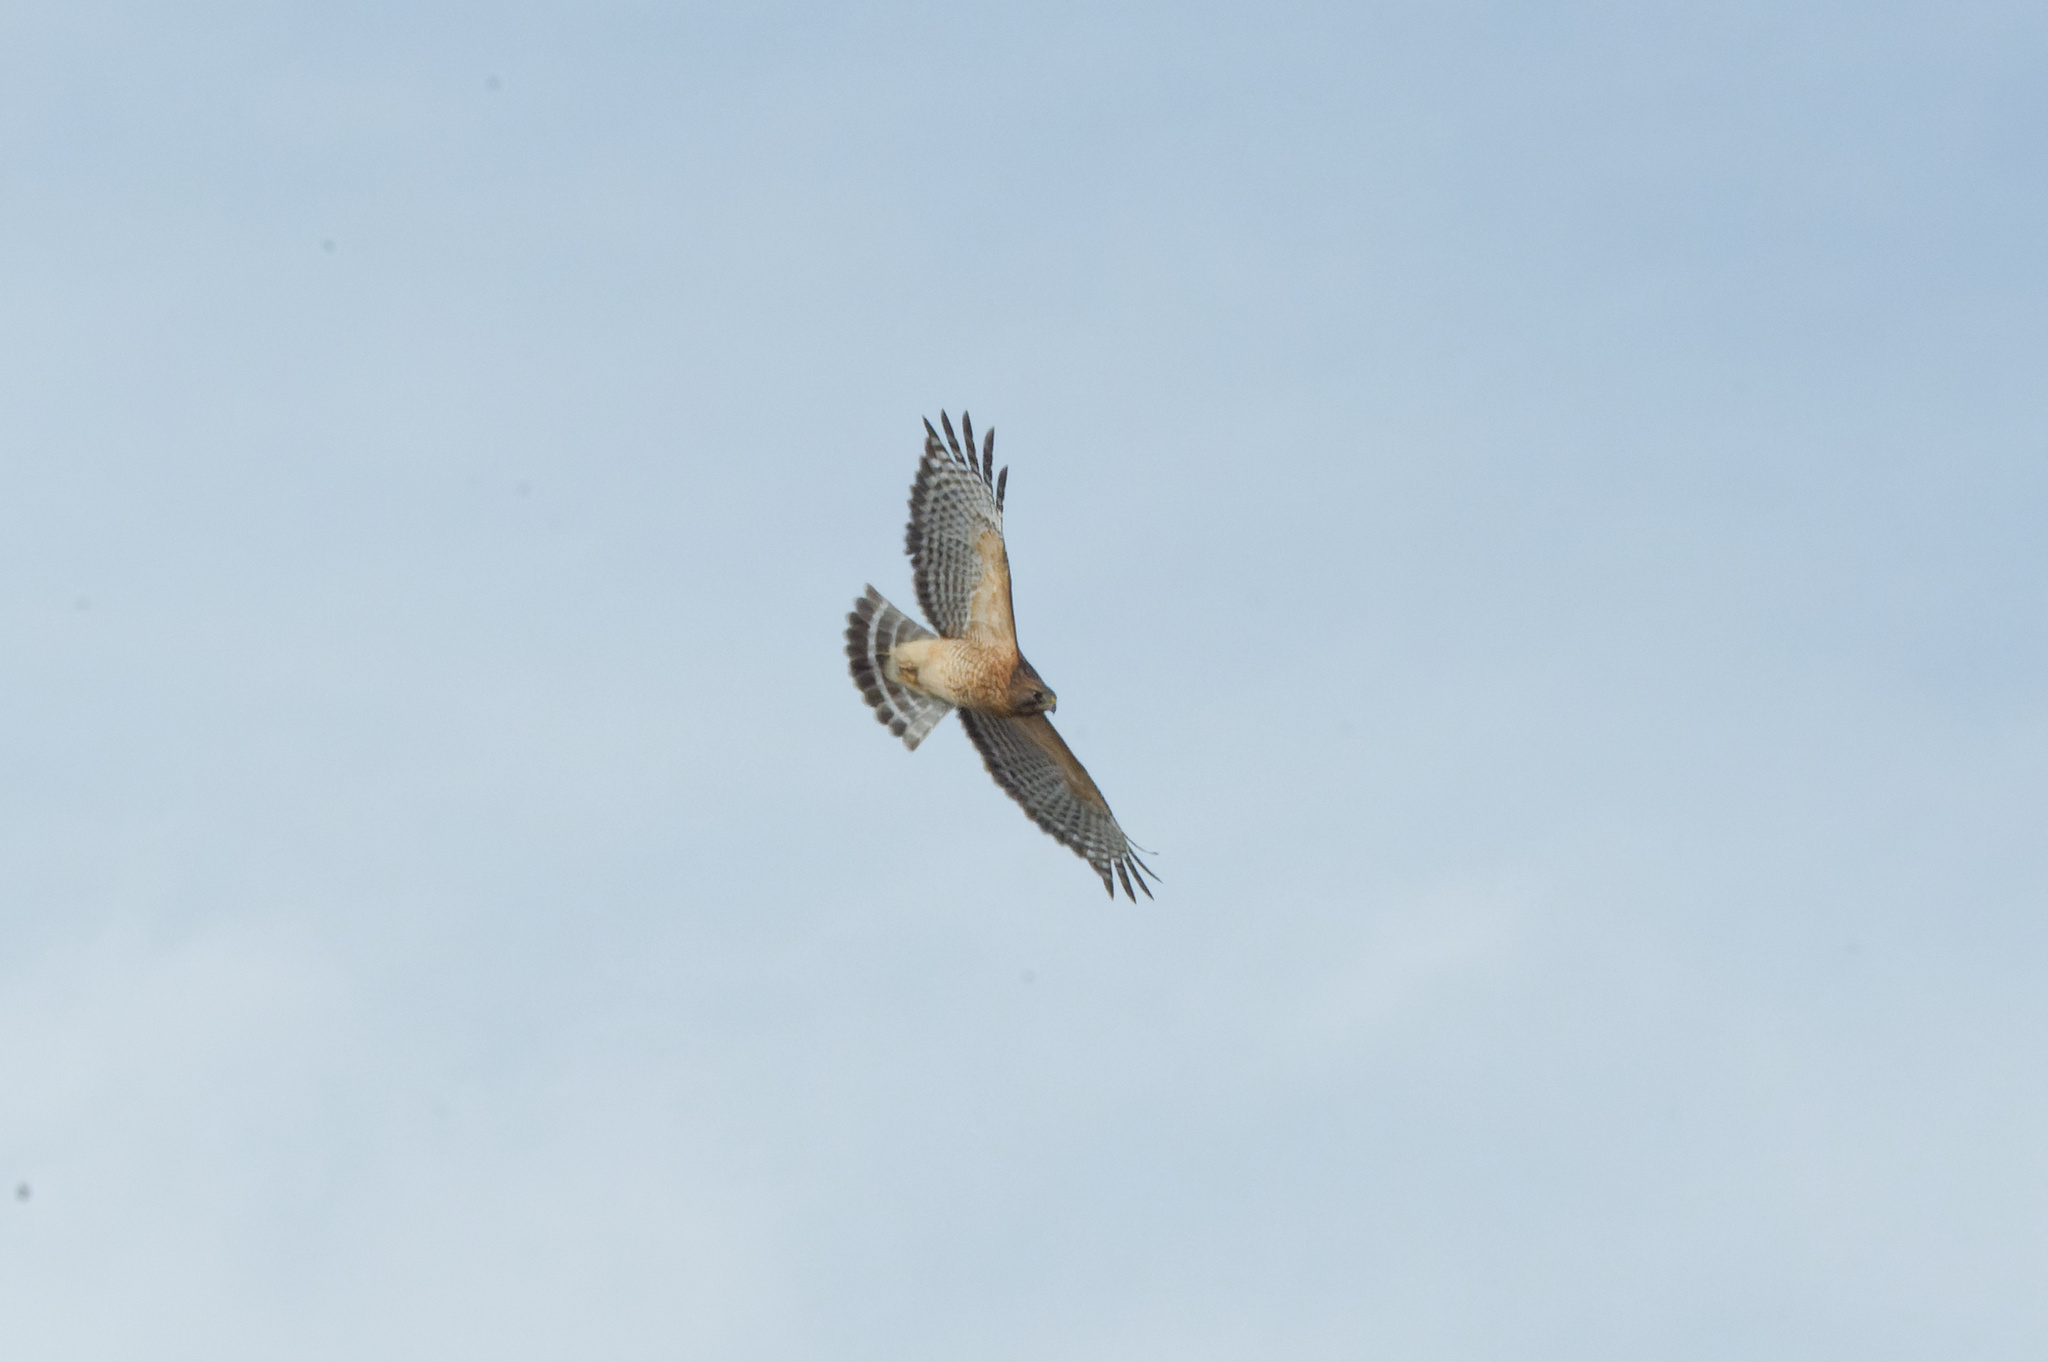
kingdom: Animalia
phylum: Chordata
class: Aves
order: Accipitriformes
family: Accipitridae
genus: Buteo
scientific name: Buteo lineatus
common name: Red-shouldered hawk
